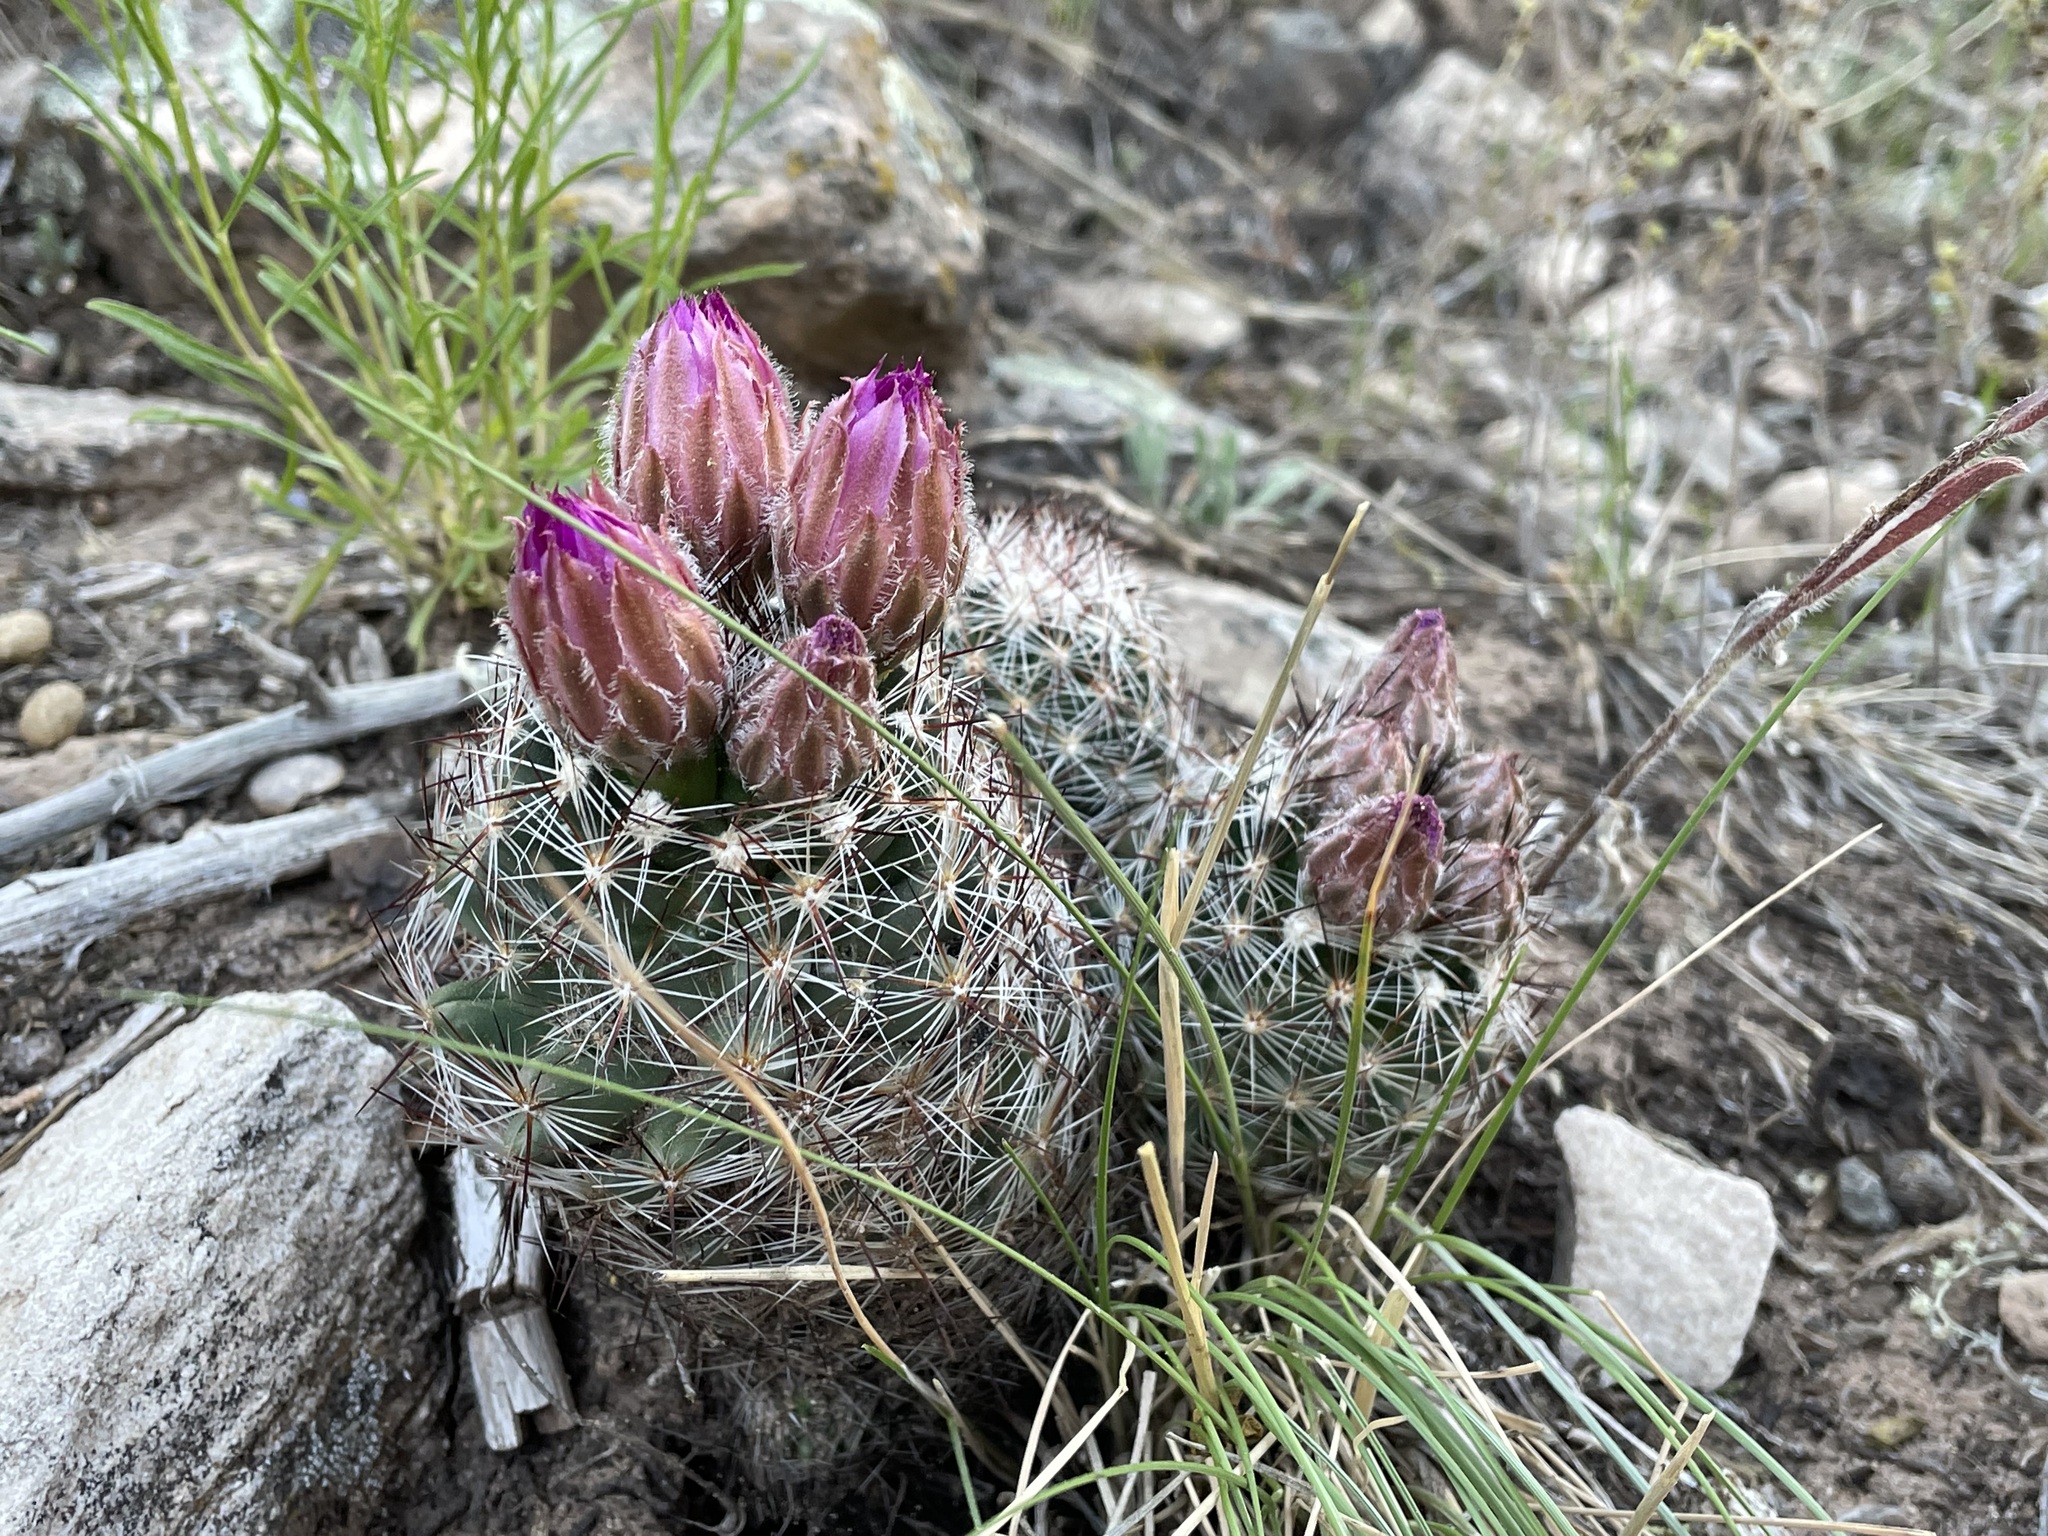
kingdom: Plantae
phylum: Tracheophyta
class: Magnoliopsida
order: Caryophyllales
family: Cactaceae
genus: Pelecyphora
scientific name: Pelecyphora vivipara
